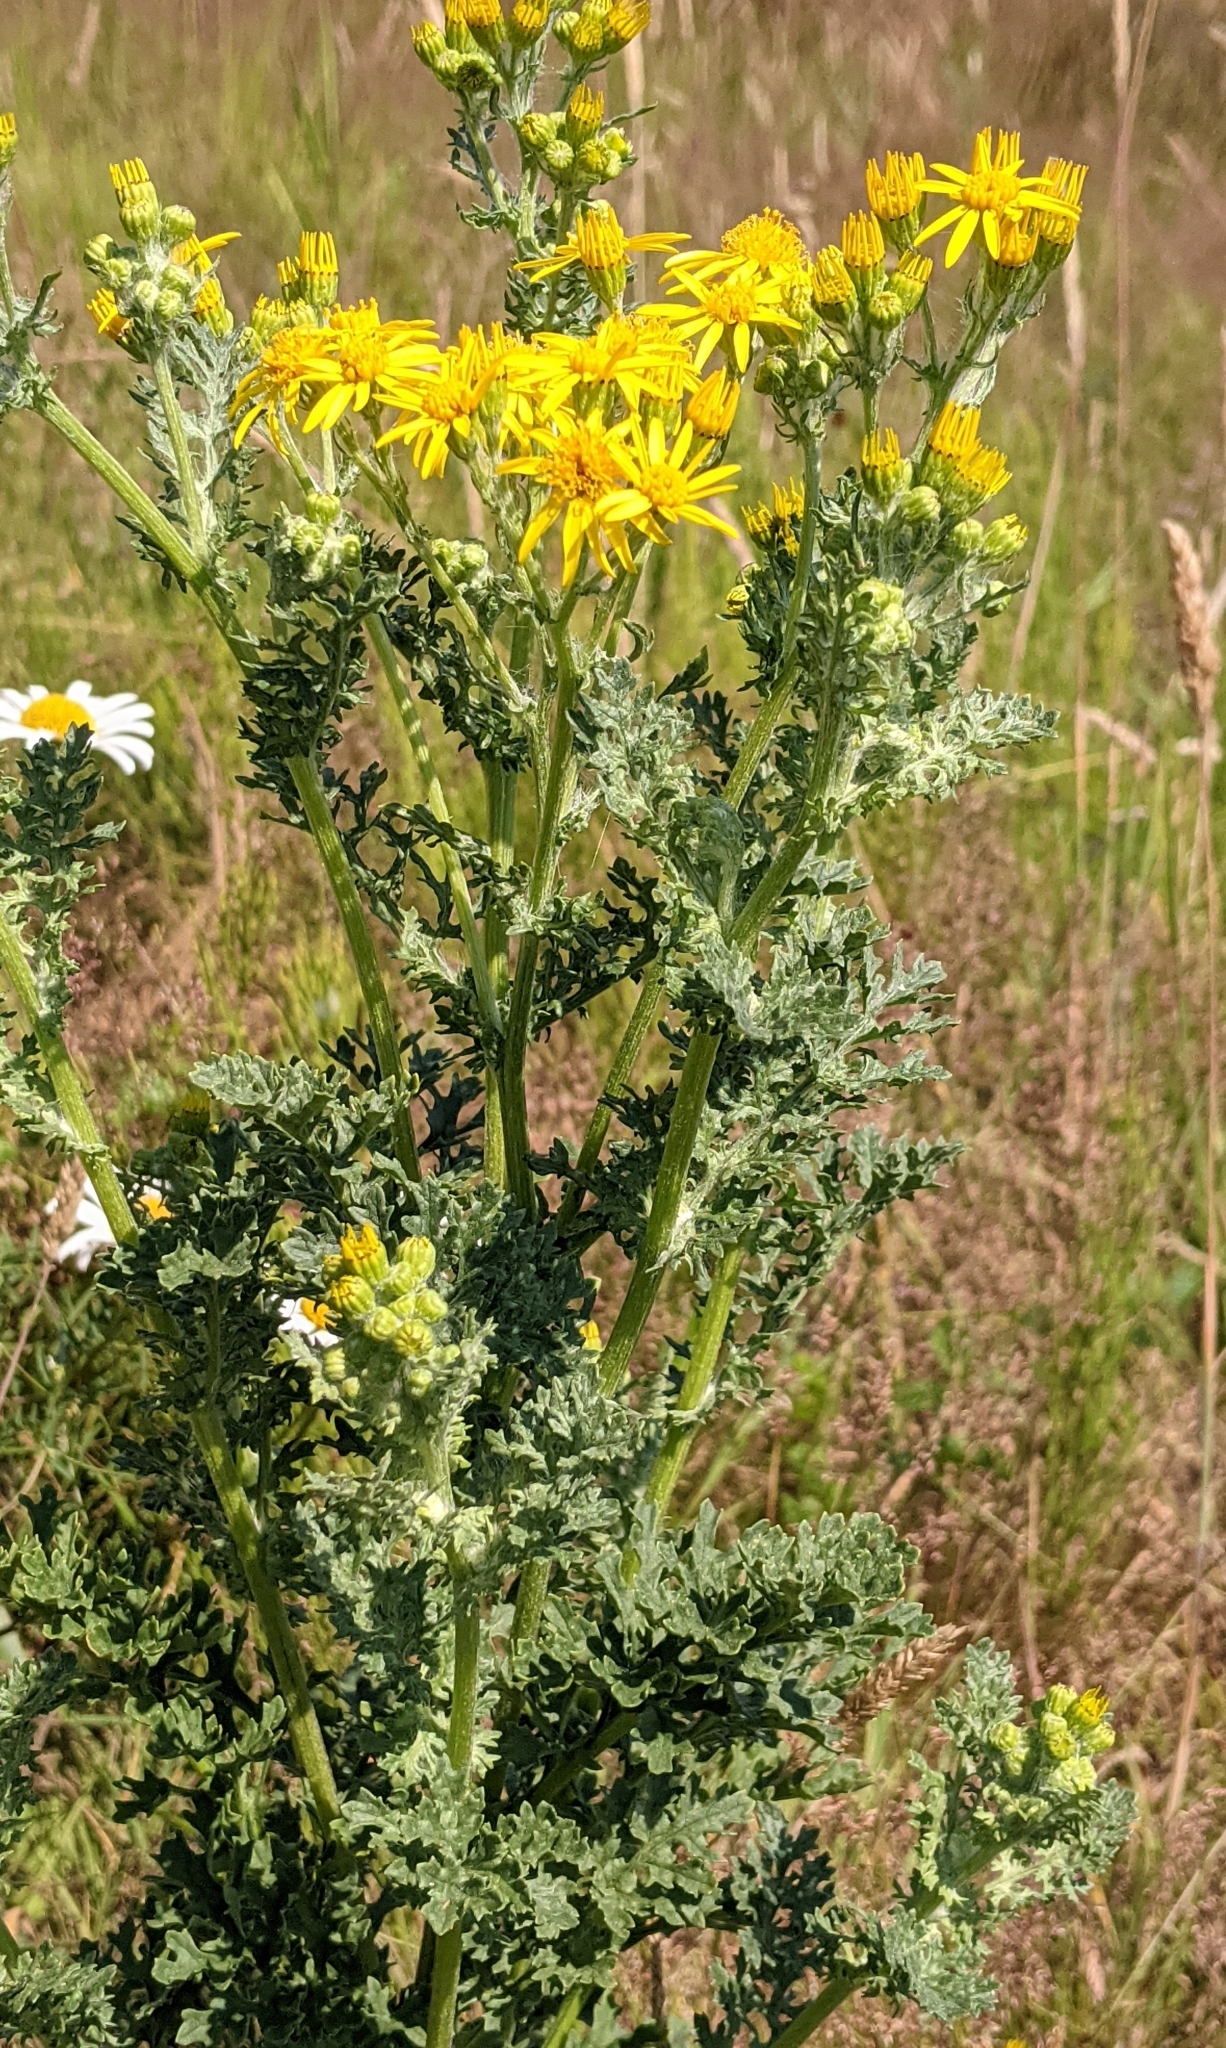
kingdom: Plantae
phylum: Tracheophyta
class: Magnoliopsida
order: Asterales
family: Asteraceae
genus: Jacobaea
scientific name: Jacobaea vulgaris
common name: Stinking willie
